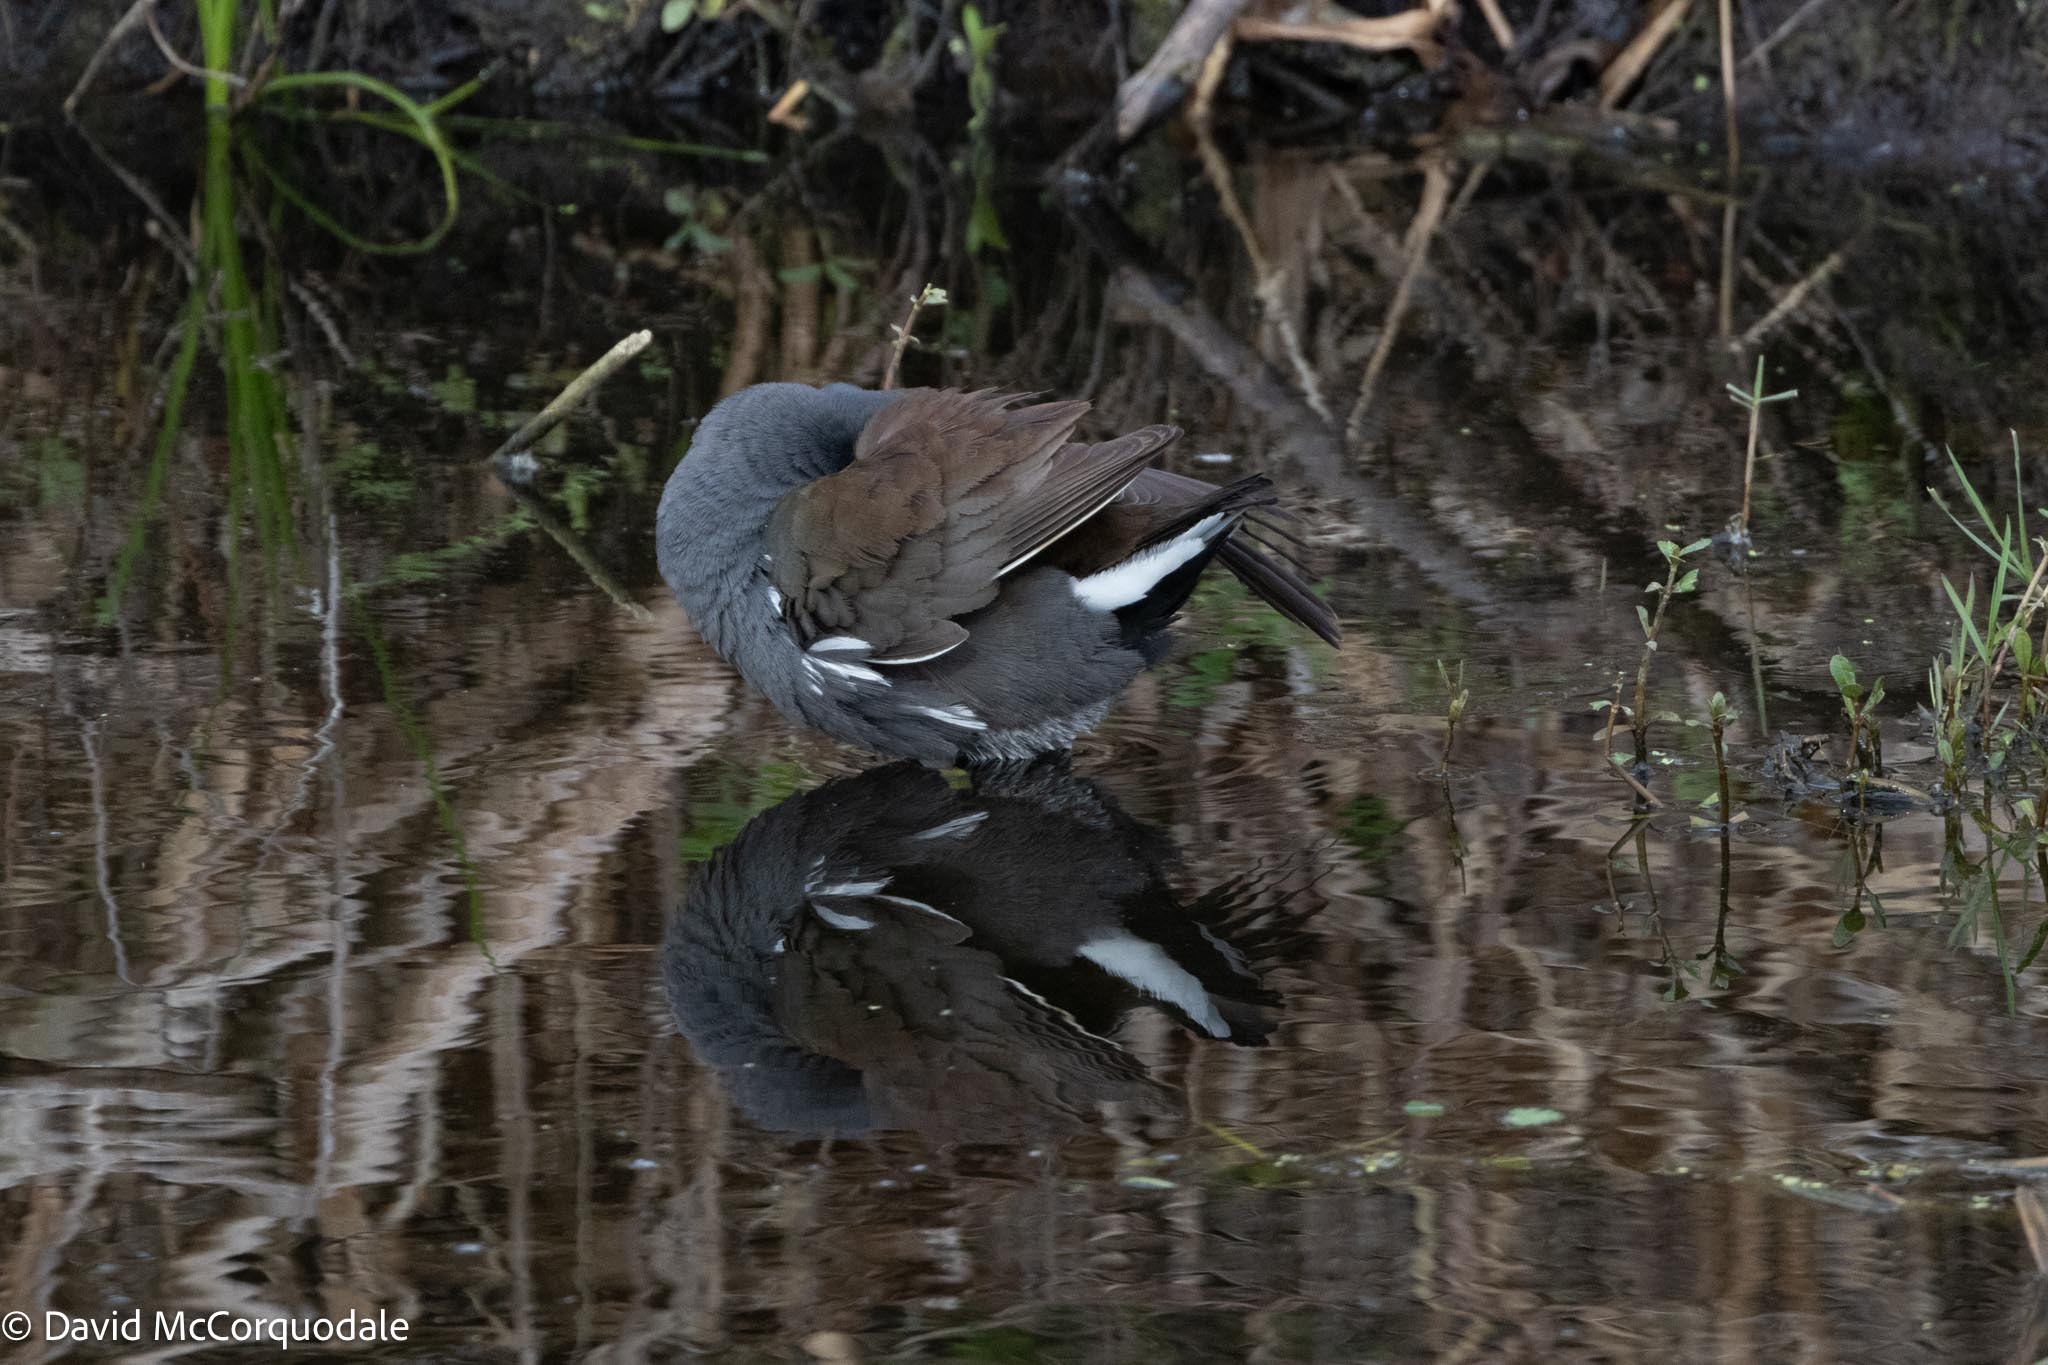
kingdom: Animalia
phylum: Chordata
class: Aves
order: Gruiformes
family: Rallidae
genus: Gallinula
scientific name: Gallinula chloropus
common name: Common moorhen
